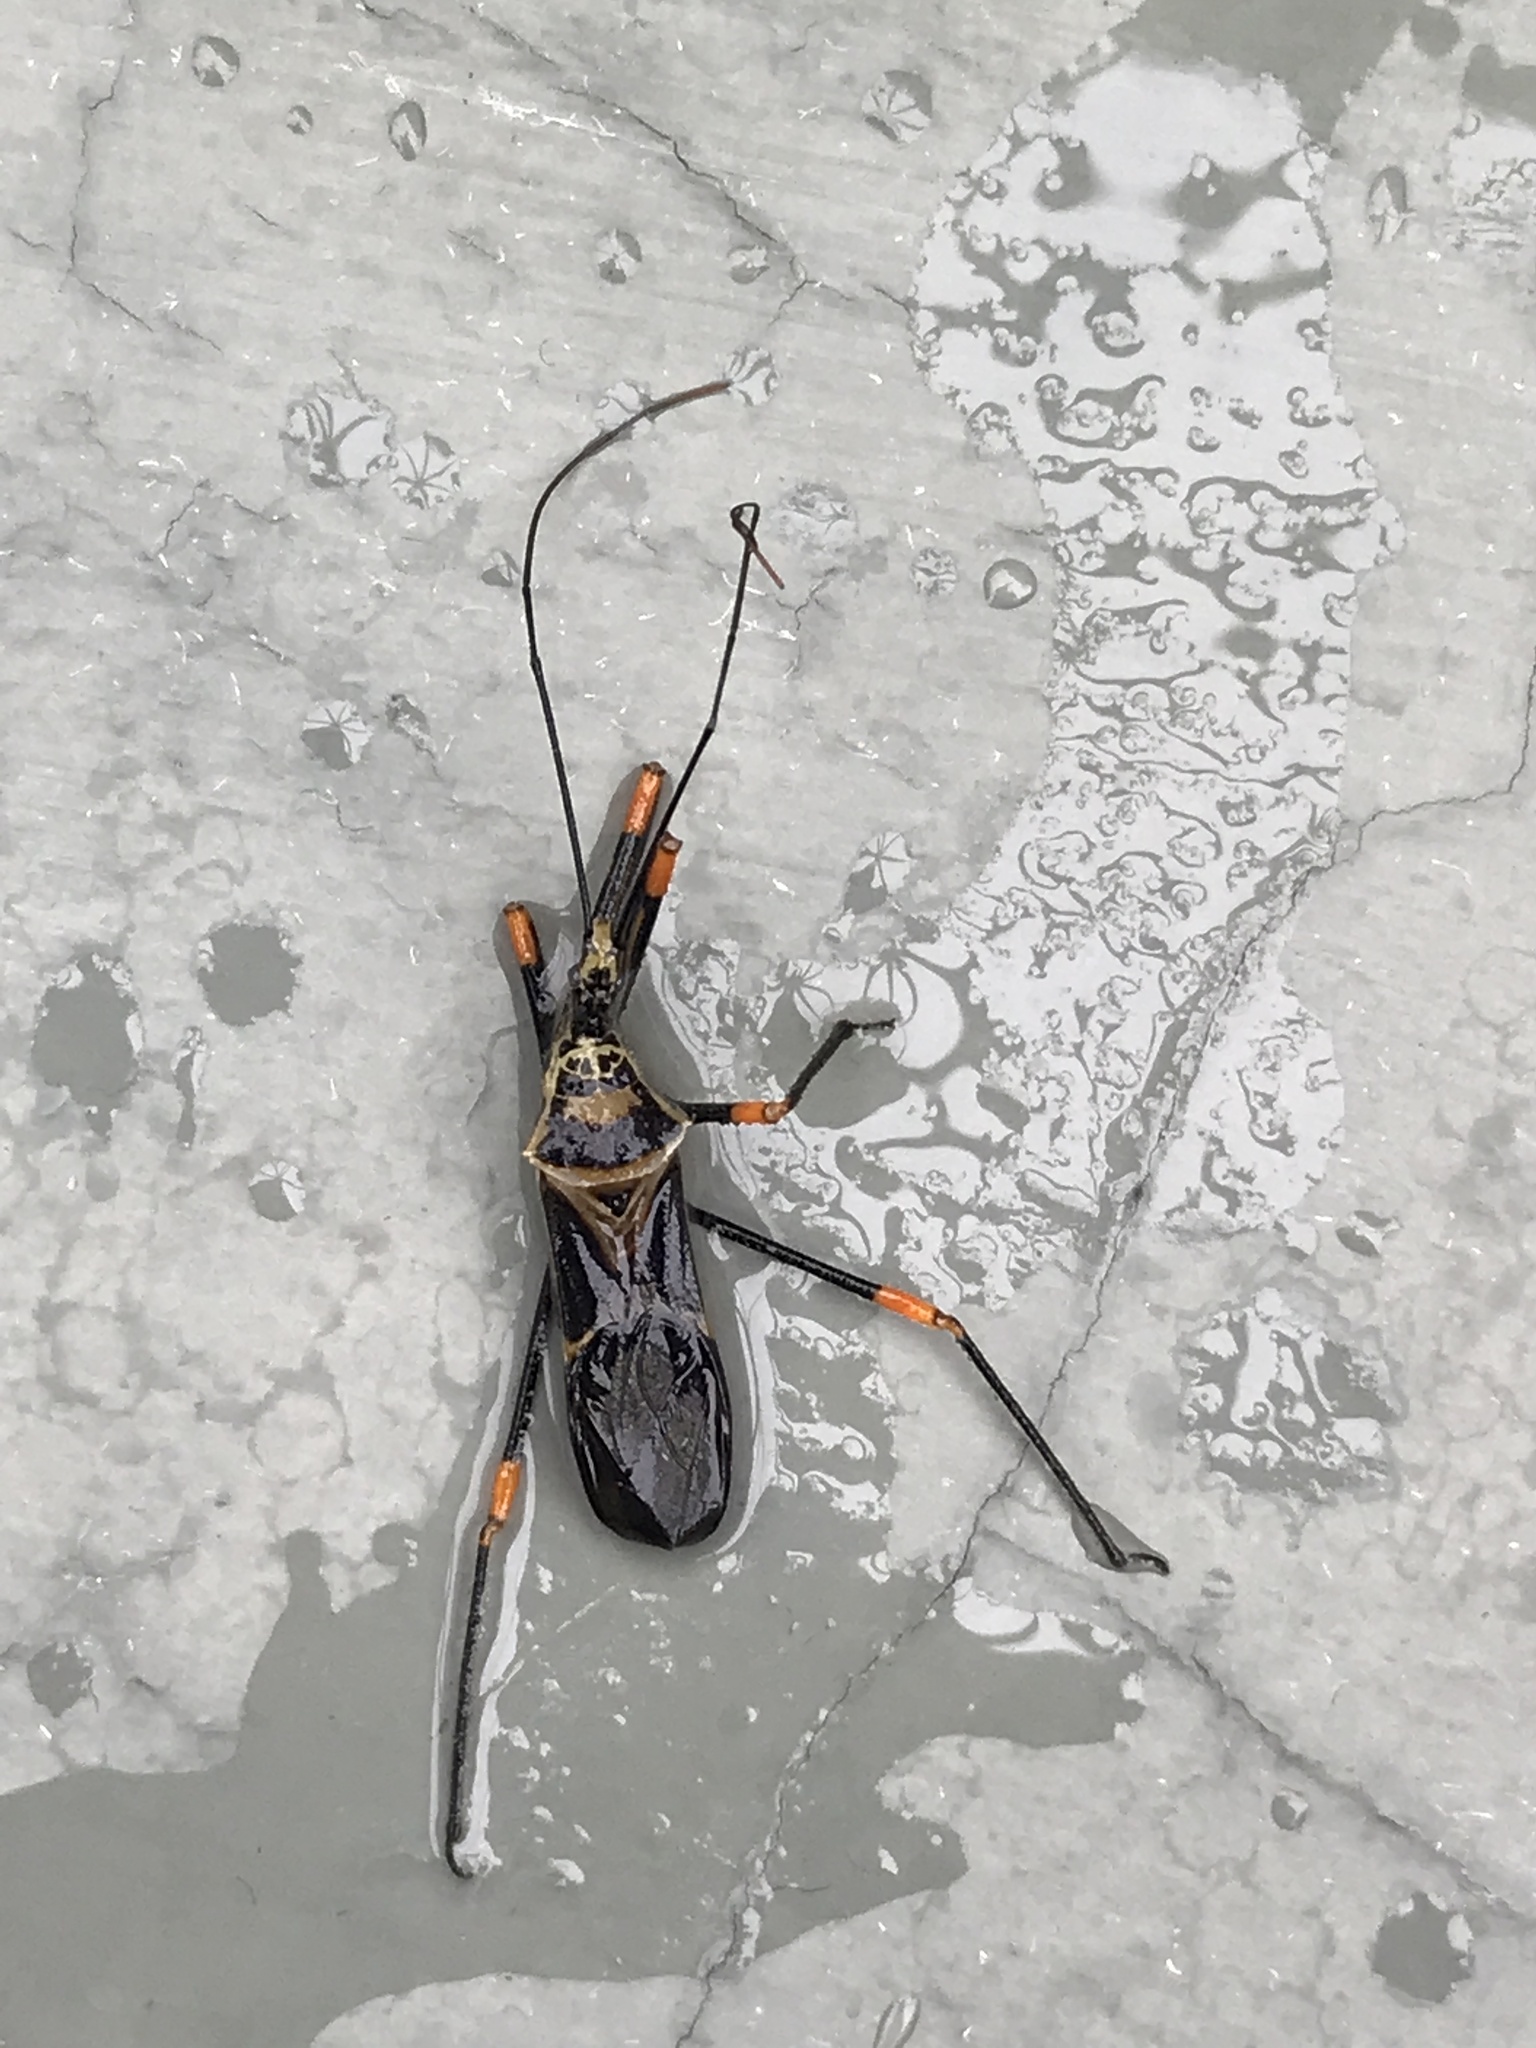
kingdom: Animalia
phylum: Arthropoda
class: Insecta
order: Hemiptera
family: Reduviidae
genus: Zelus
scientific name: Zelus armillatus
